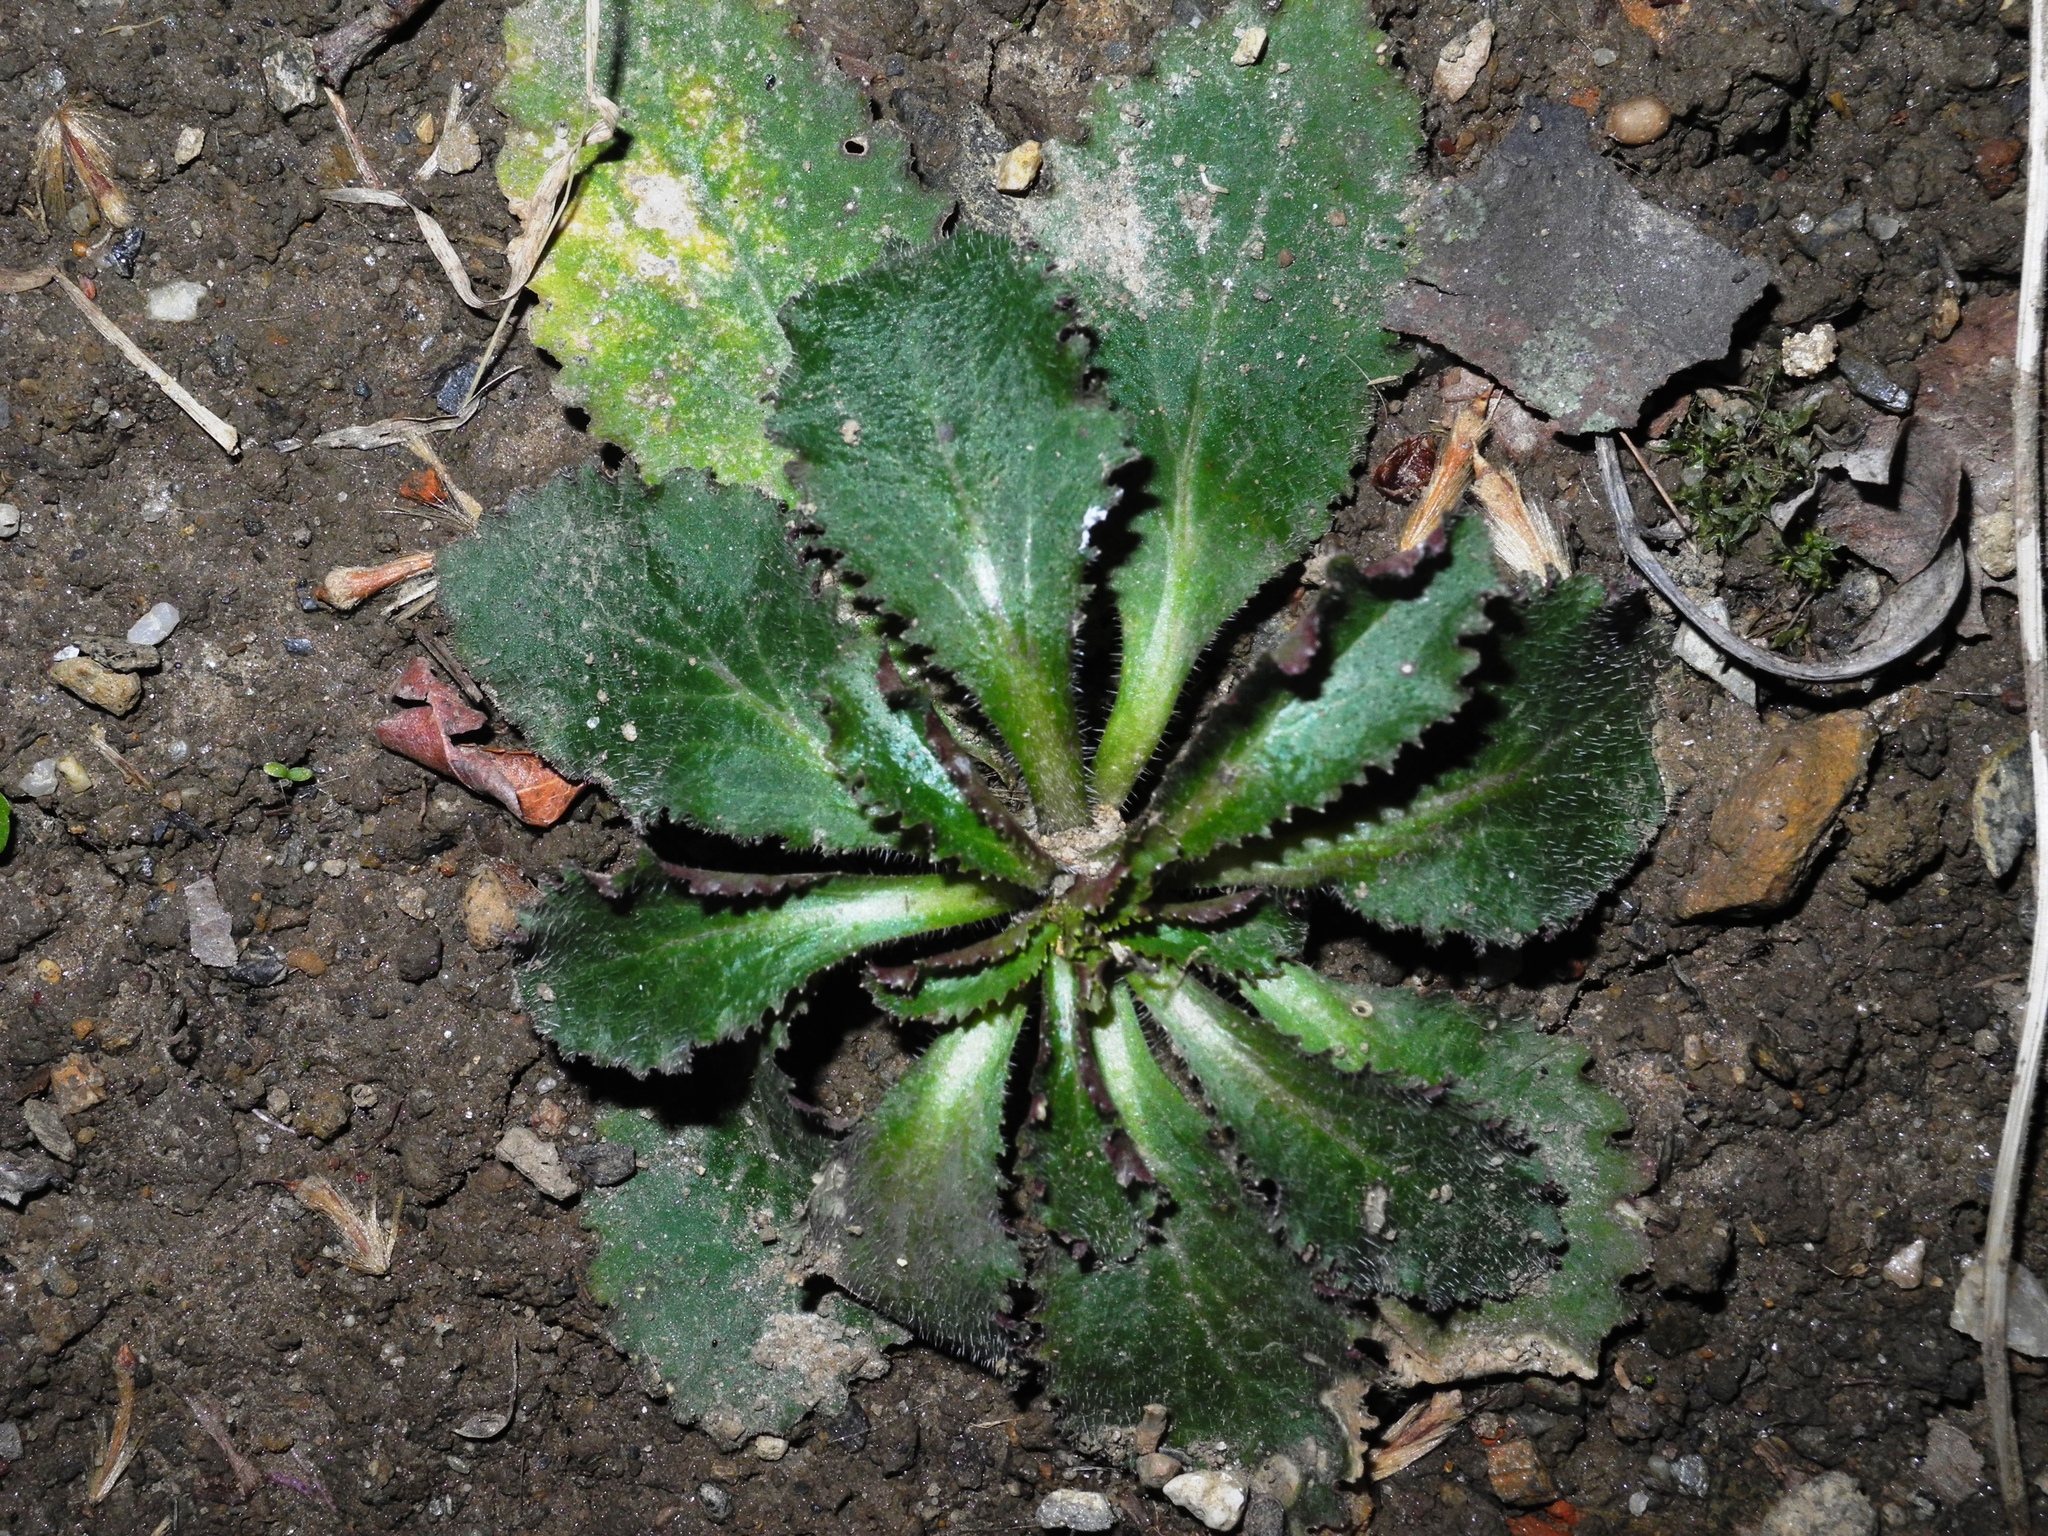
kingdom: Plantae
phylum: Tracheophyta
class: Magnoliopsida
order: Asterales
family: Campanulaceae
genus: Lobelia
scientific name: Lobelia inflata
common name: Indian tobacco
